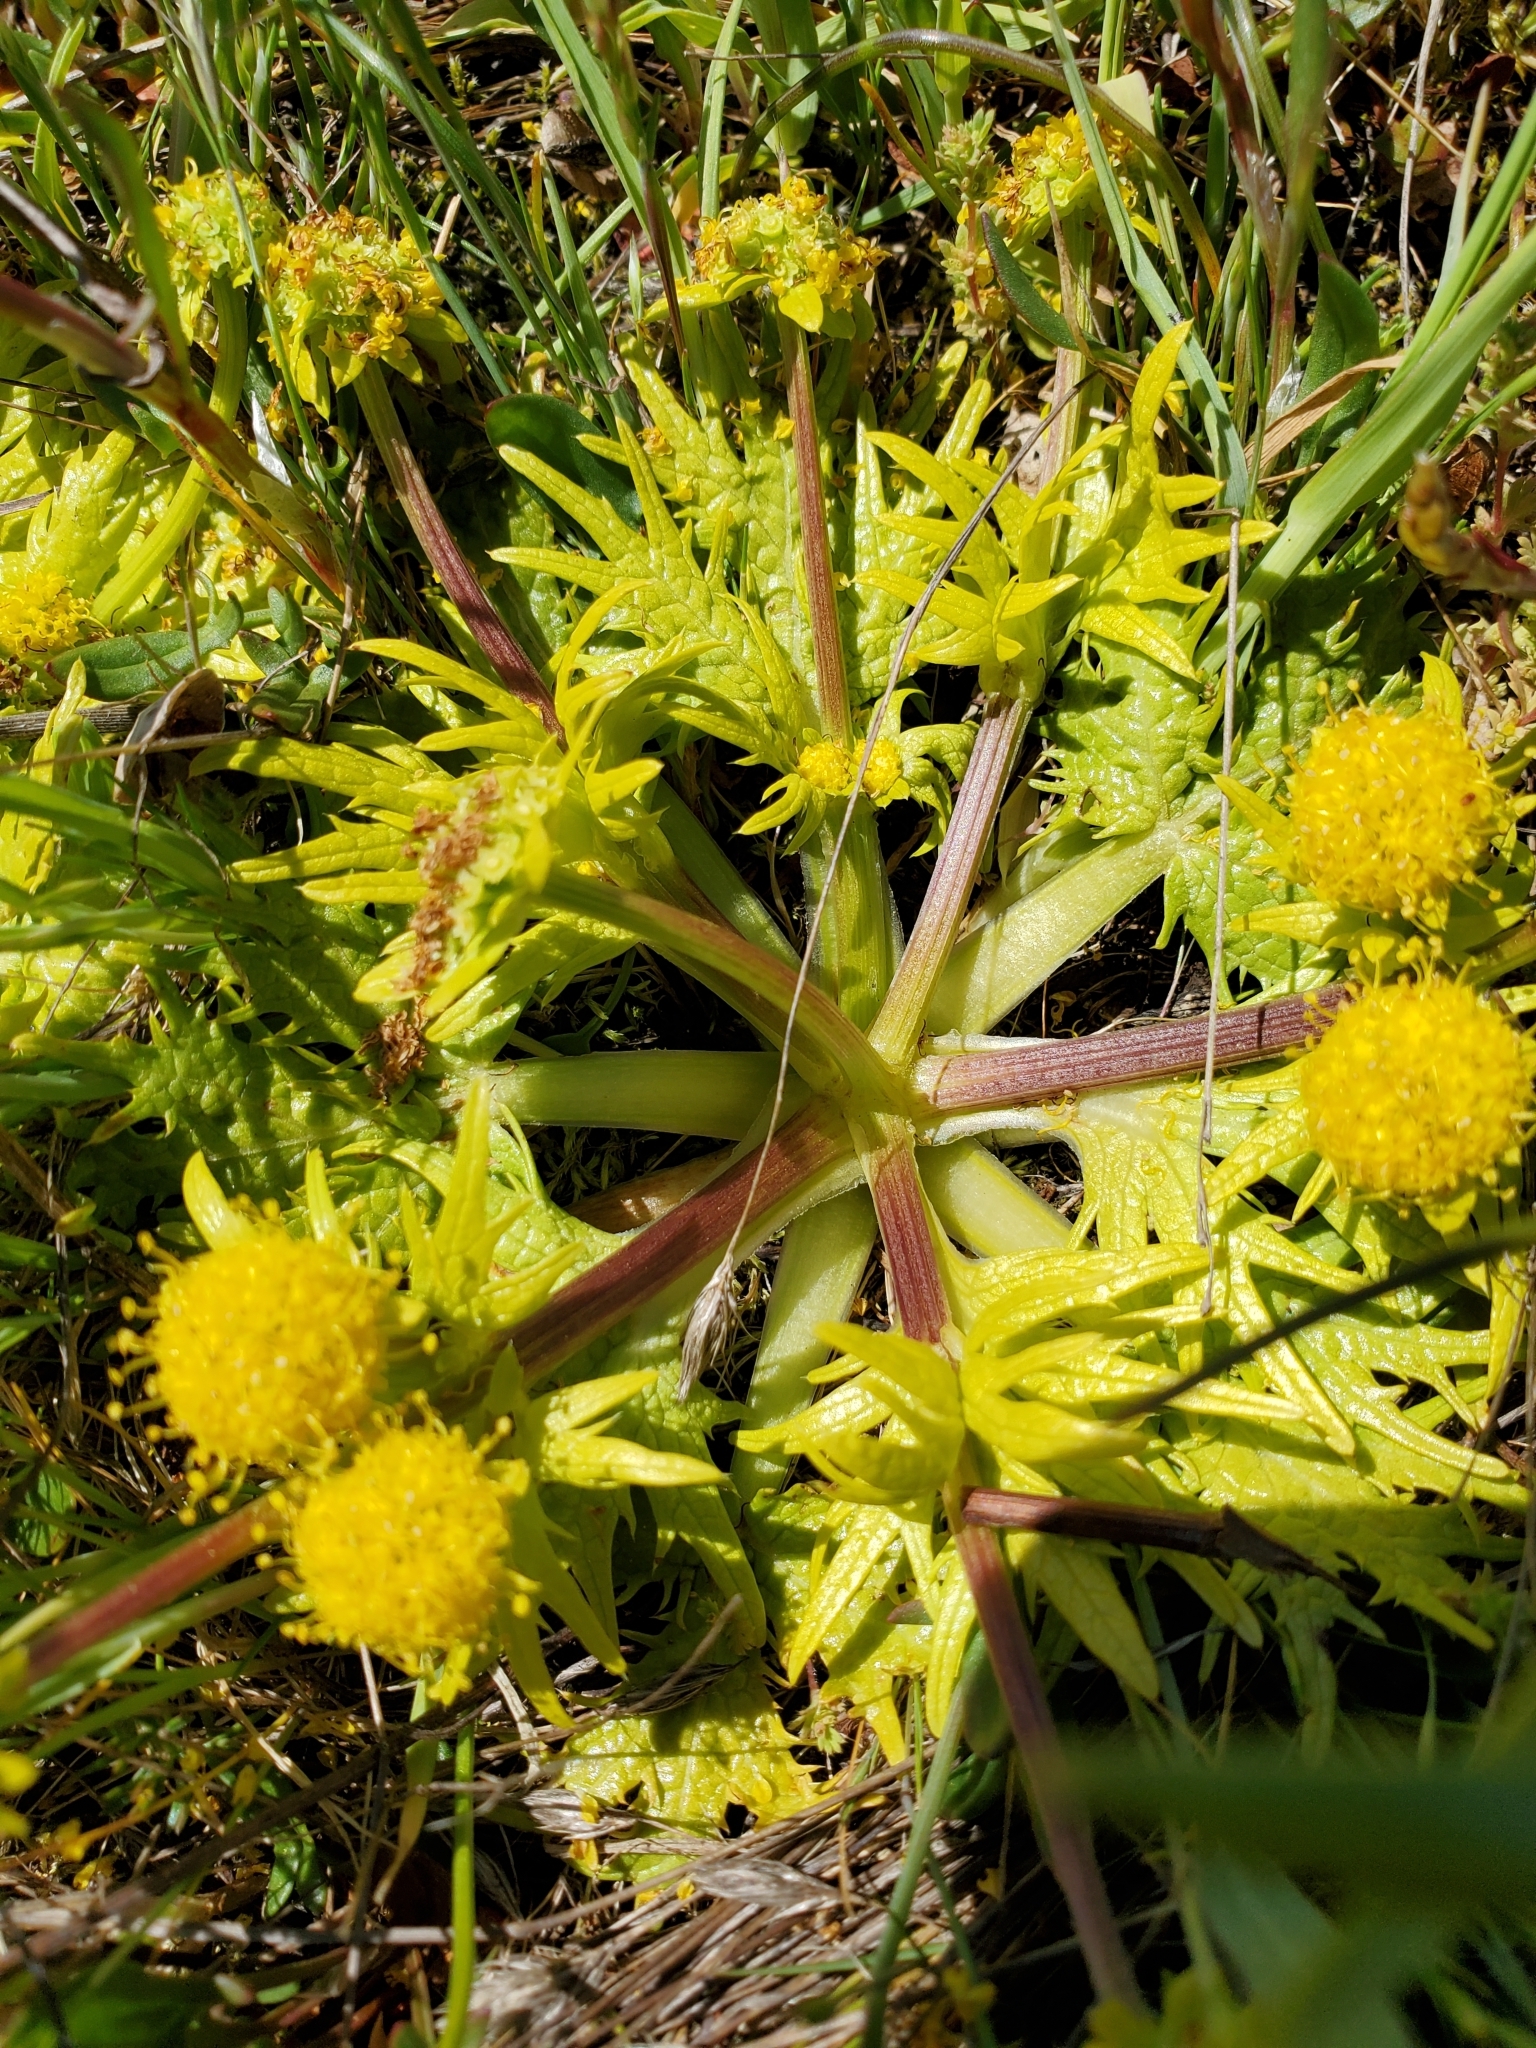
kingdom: Plantae
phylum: Tracheophyta
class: Magnoliopsida
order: Apiales
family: Apiaceae
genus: Sanicula
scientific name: Sanicula arctopoides
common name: Footsteps-of-spring
